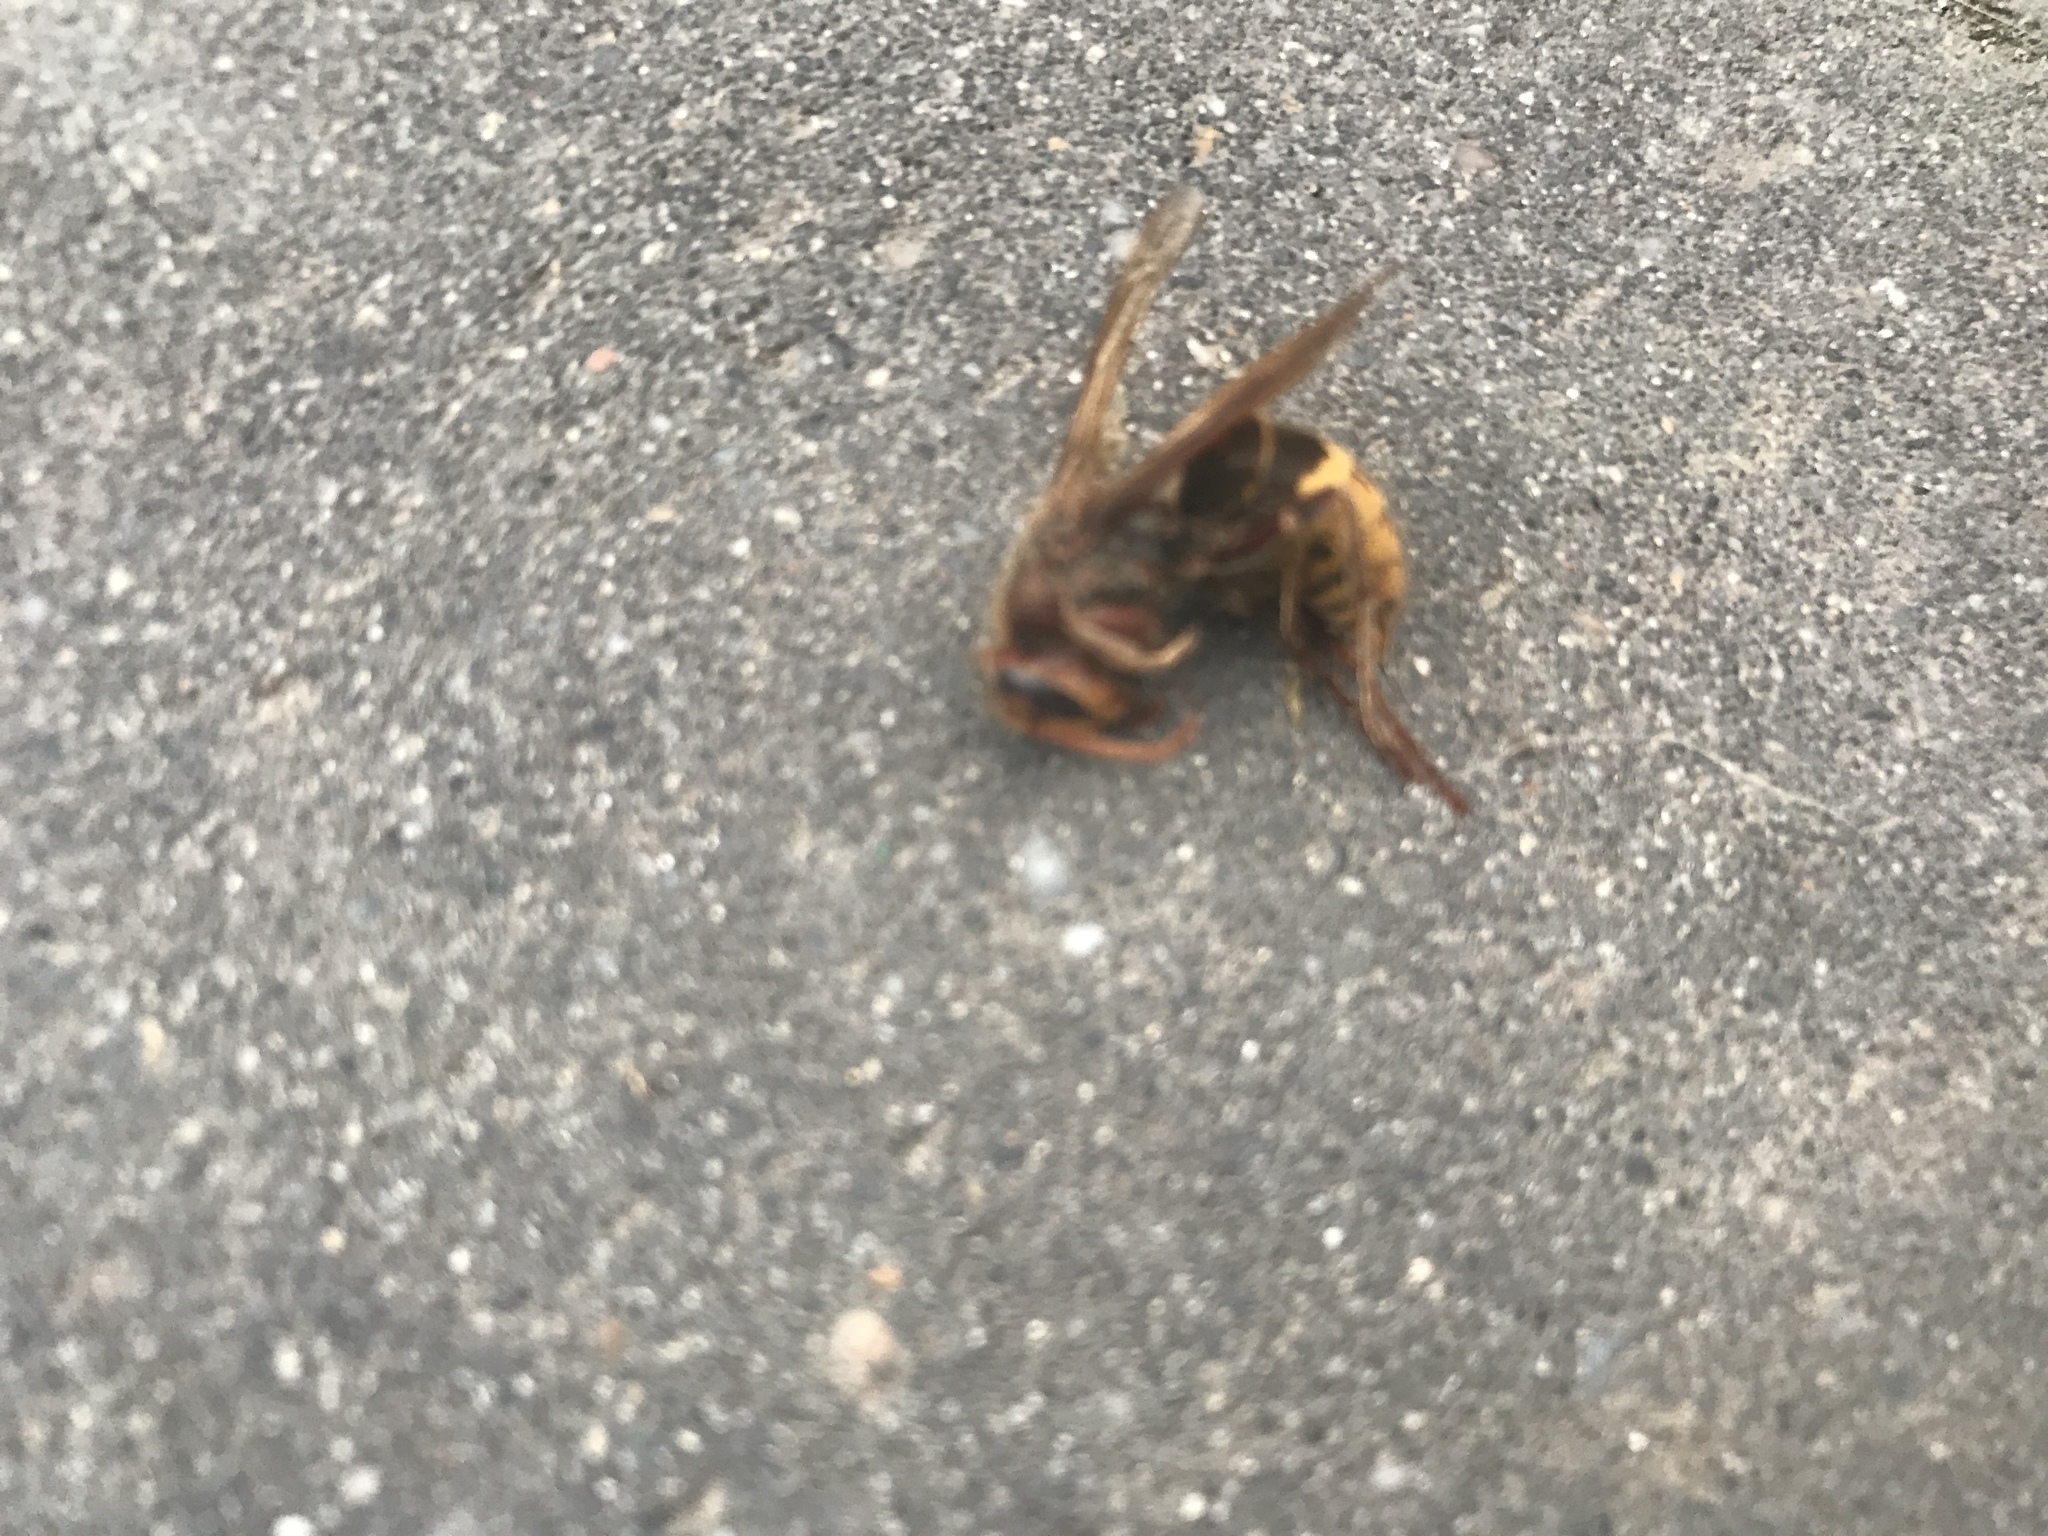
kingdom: Animalia
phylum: Arthropoda
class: Insecta
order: Hymenoptera
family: Vespidae
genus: Vespa
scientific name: Vespa crabro
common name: Hornet
